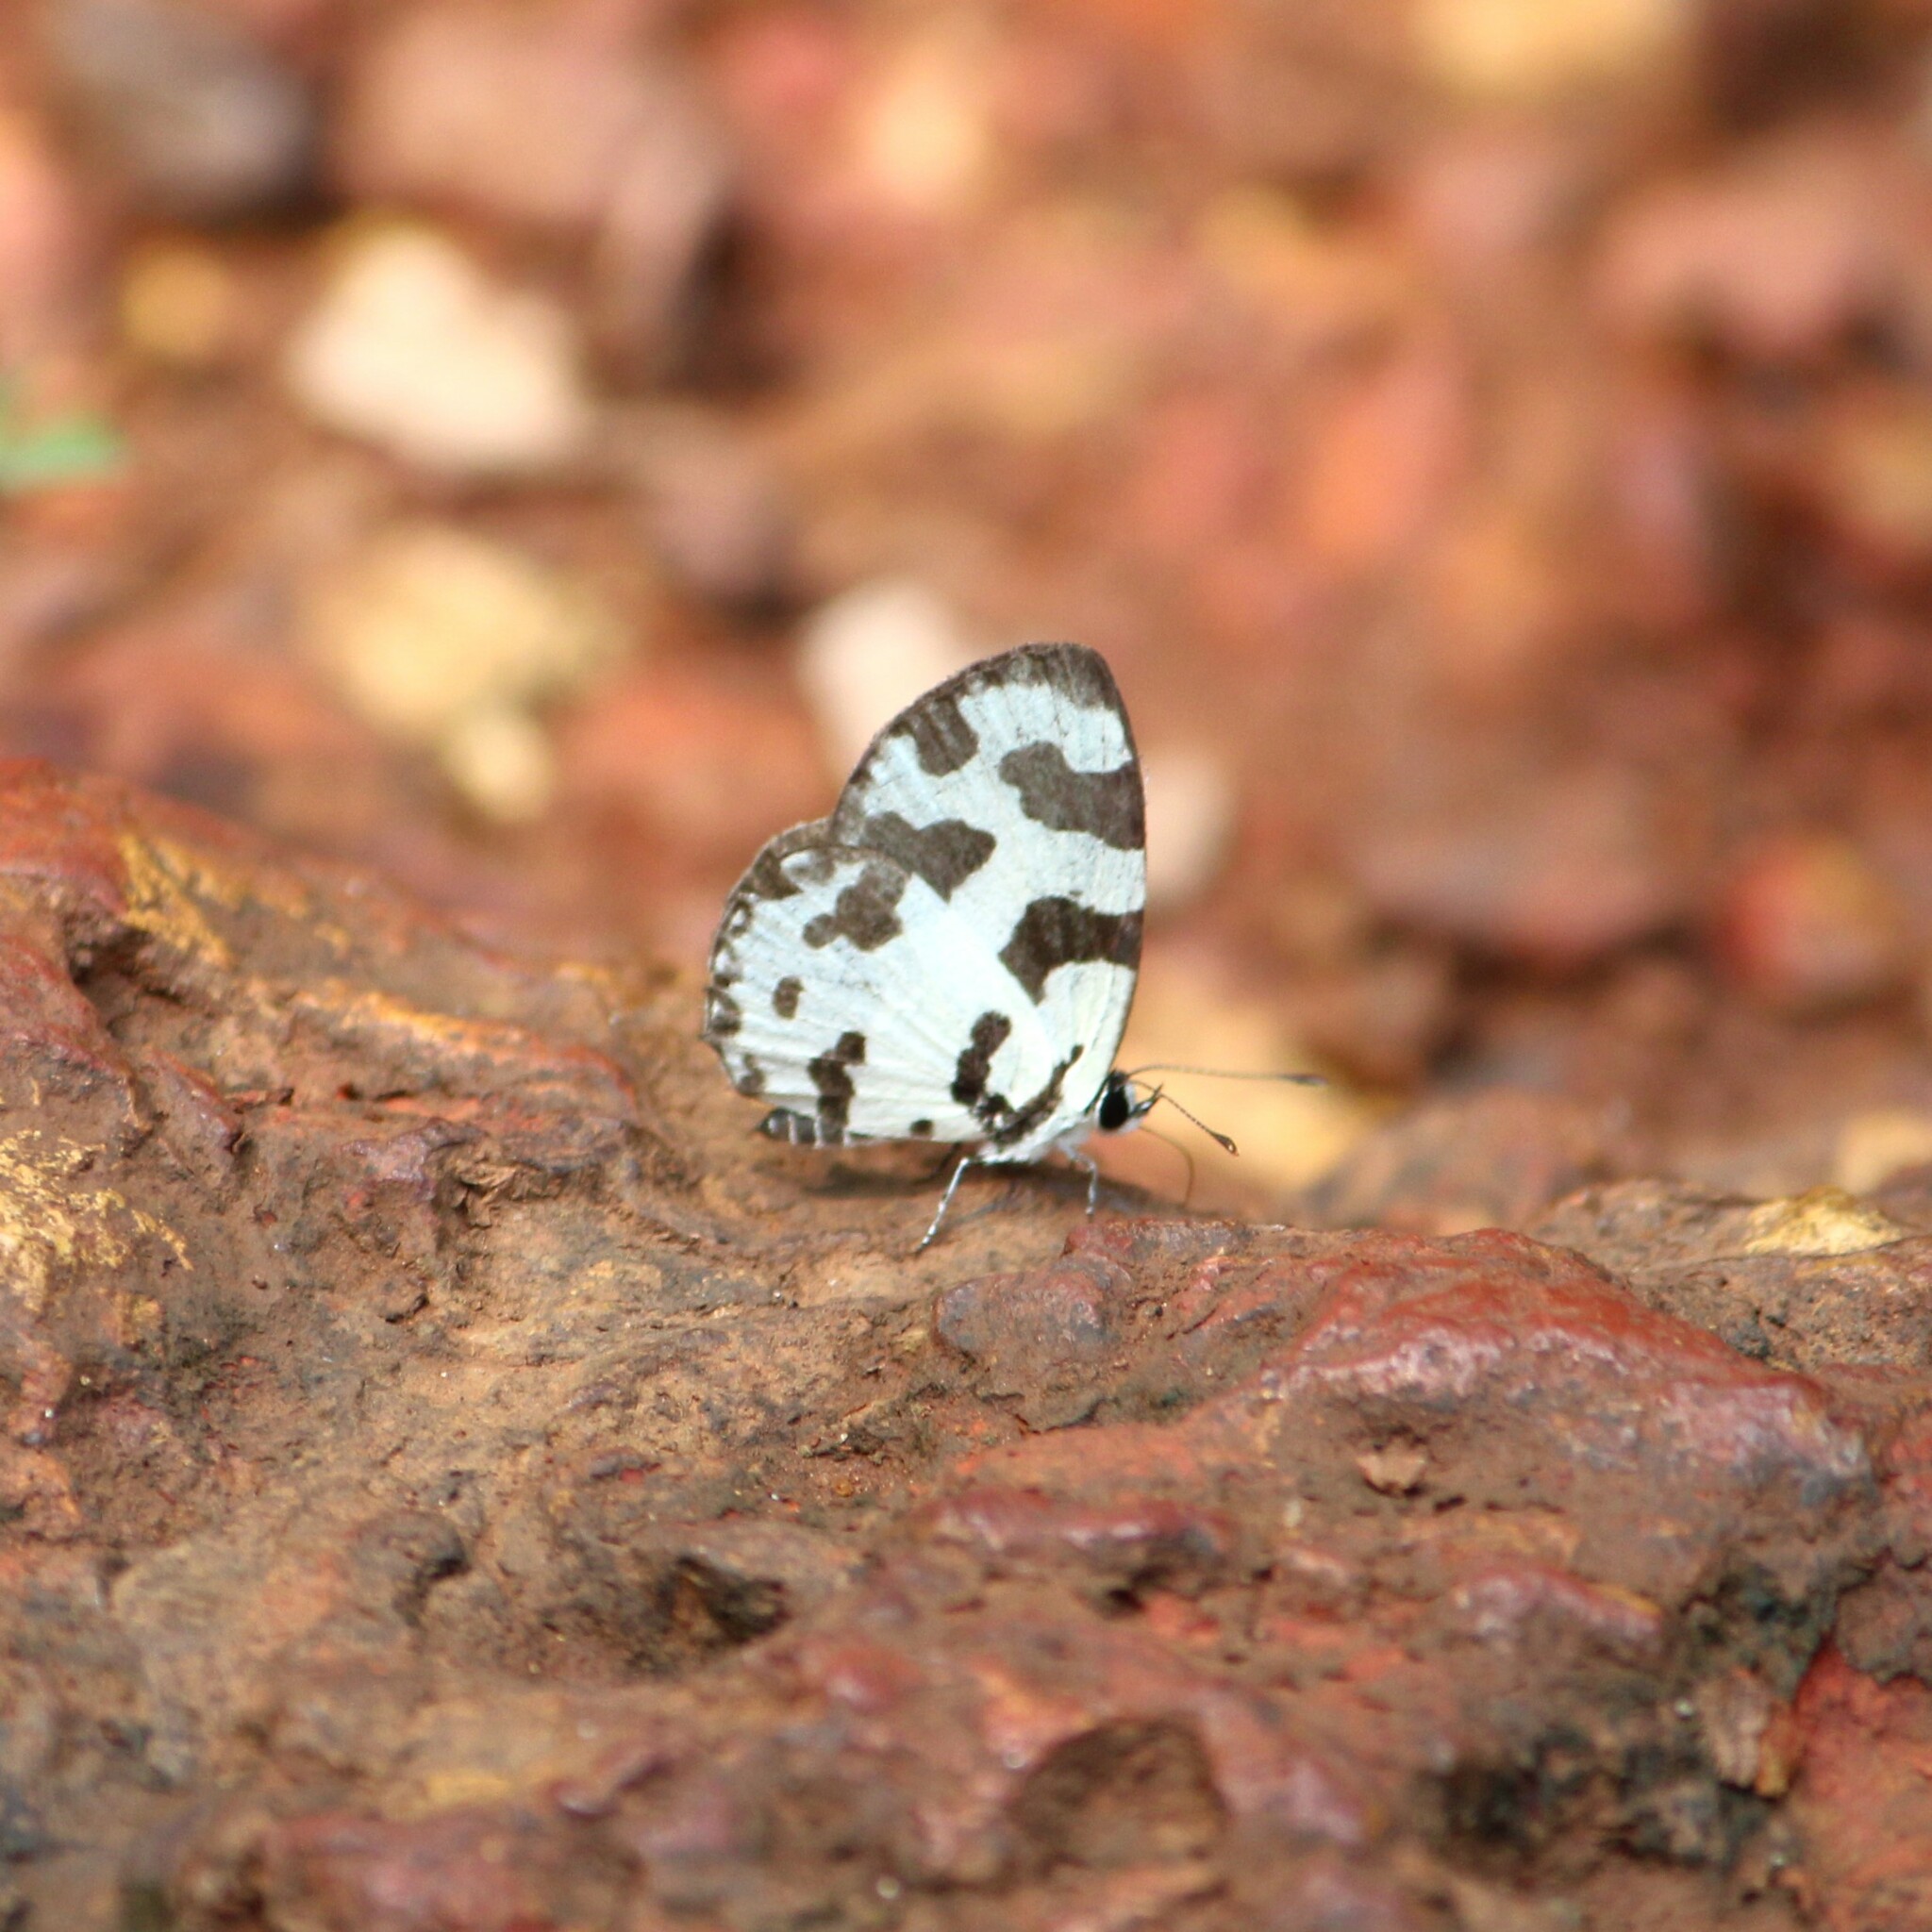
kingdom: Animalia
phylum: Arthropoda
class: Insecta
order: Lepidoptera
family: Lycaenidae
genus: Caleta
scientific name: Caleta decidia
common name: Angled pierrot
